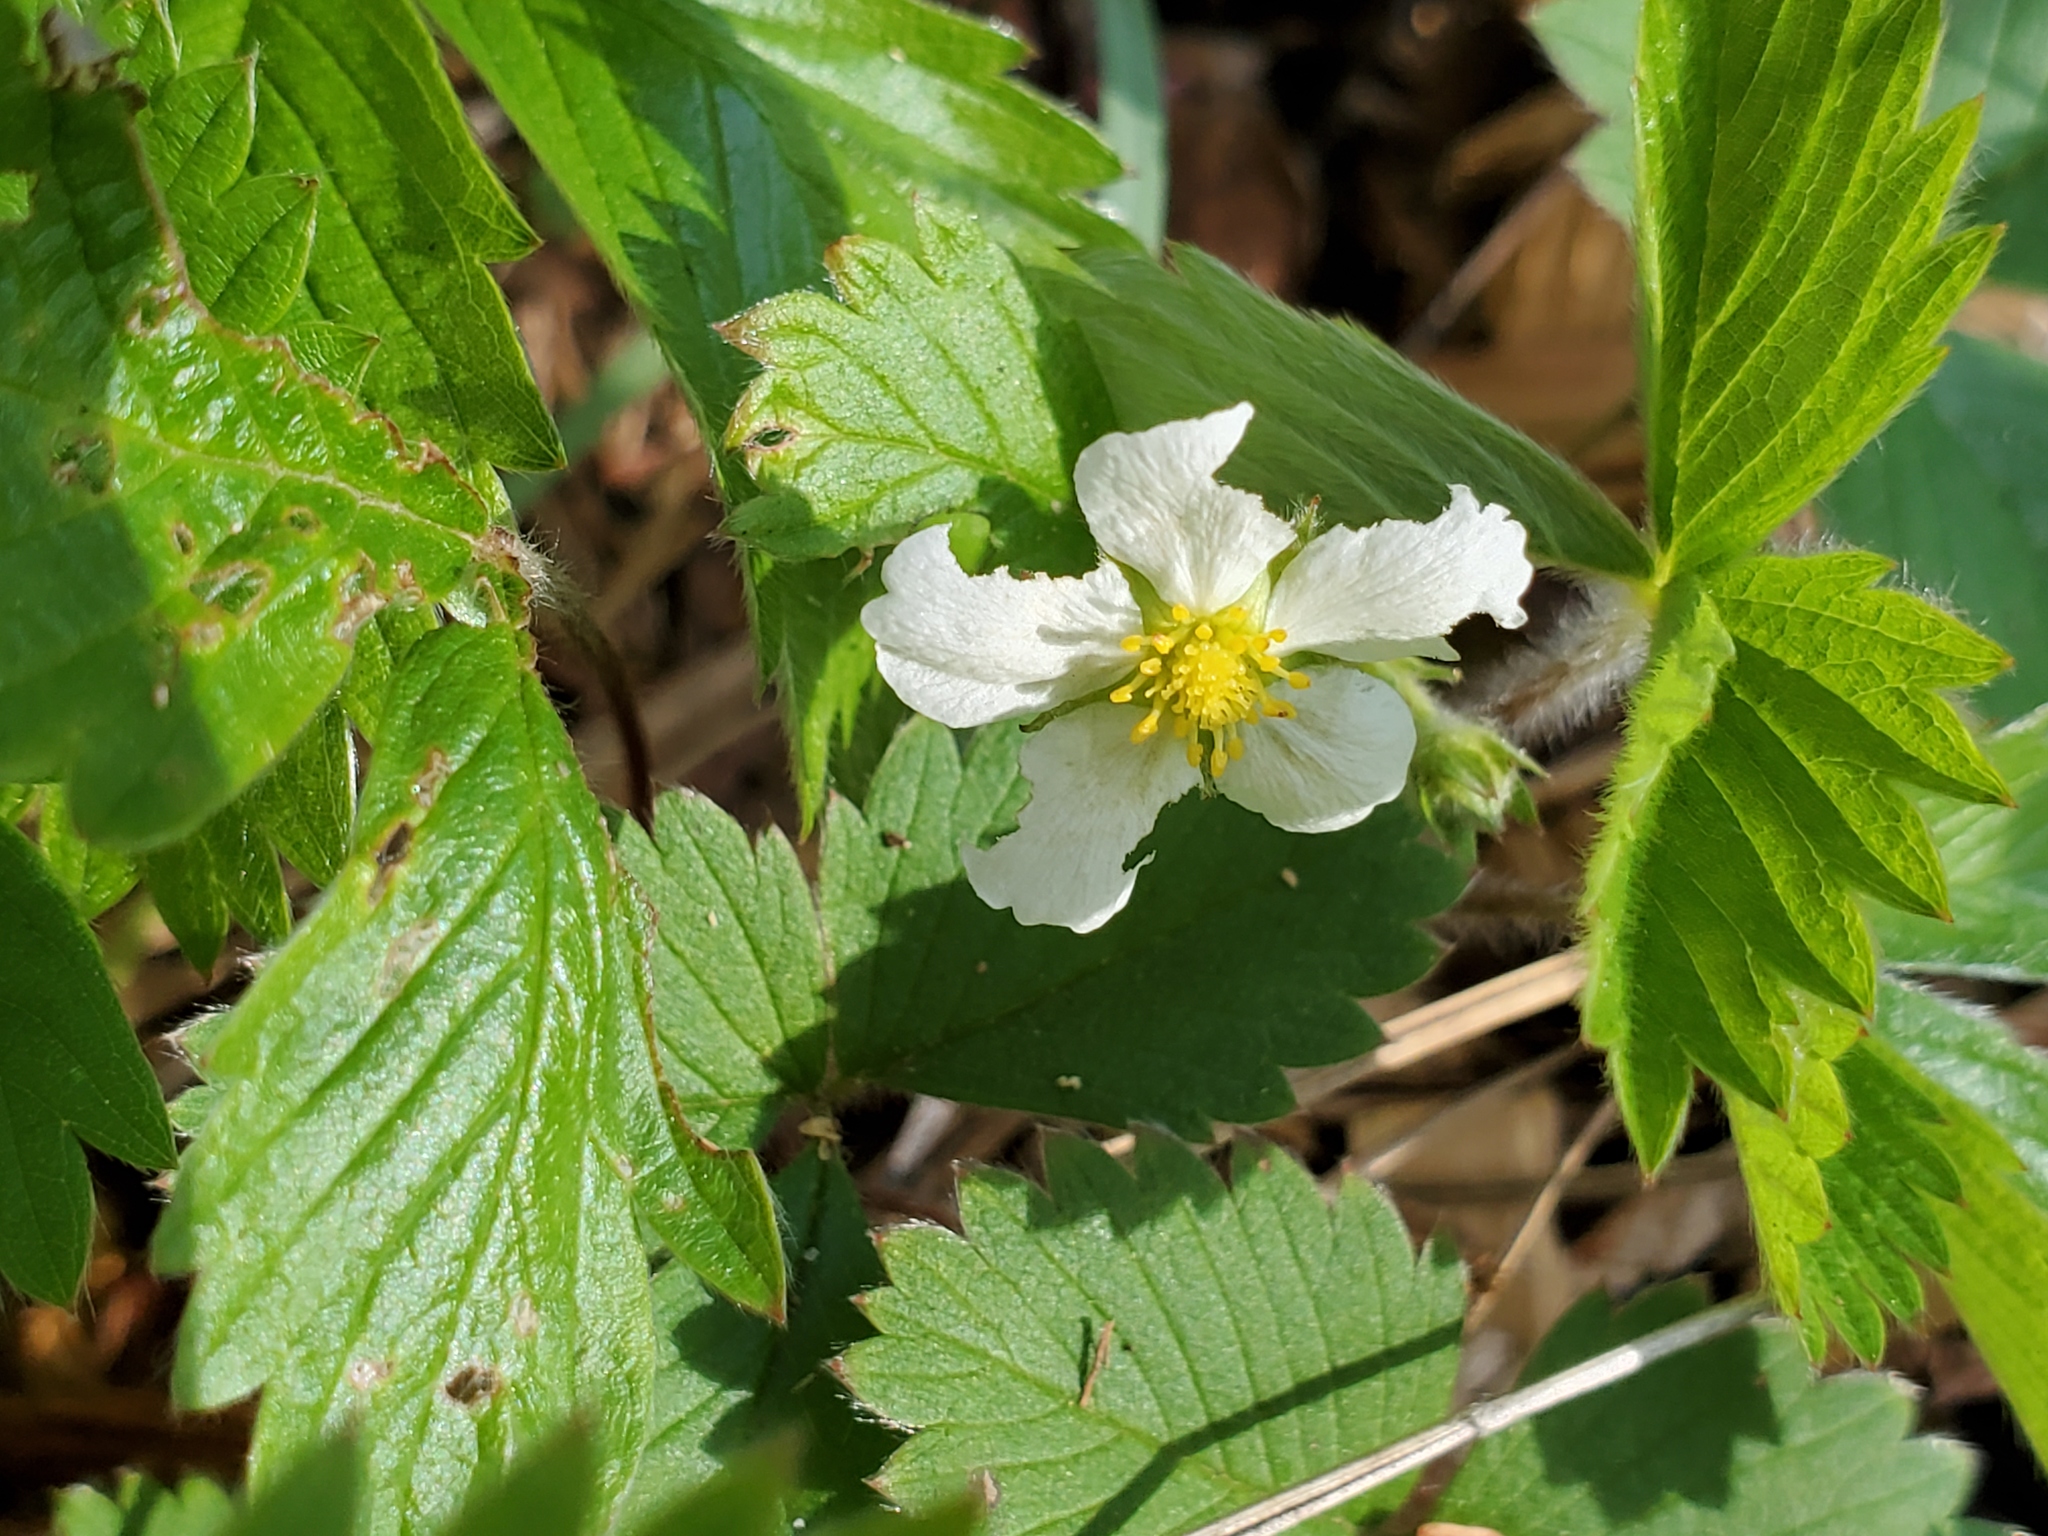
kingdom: Plantae
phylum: Tracheophyta
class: Magnoliopsida
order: Rosales
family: Rosaceae
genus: Fragaria
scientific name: Fragaria vesca
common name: Wild strawberry
